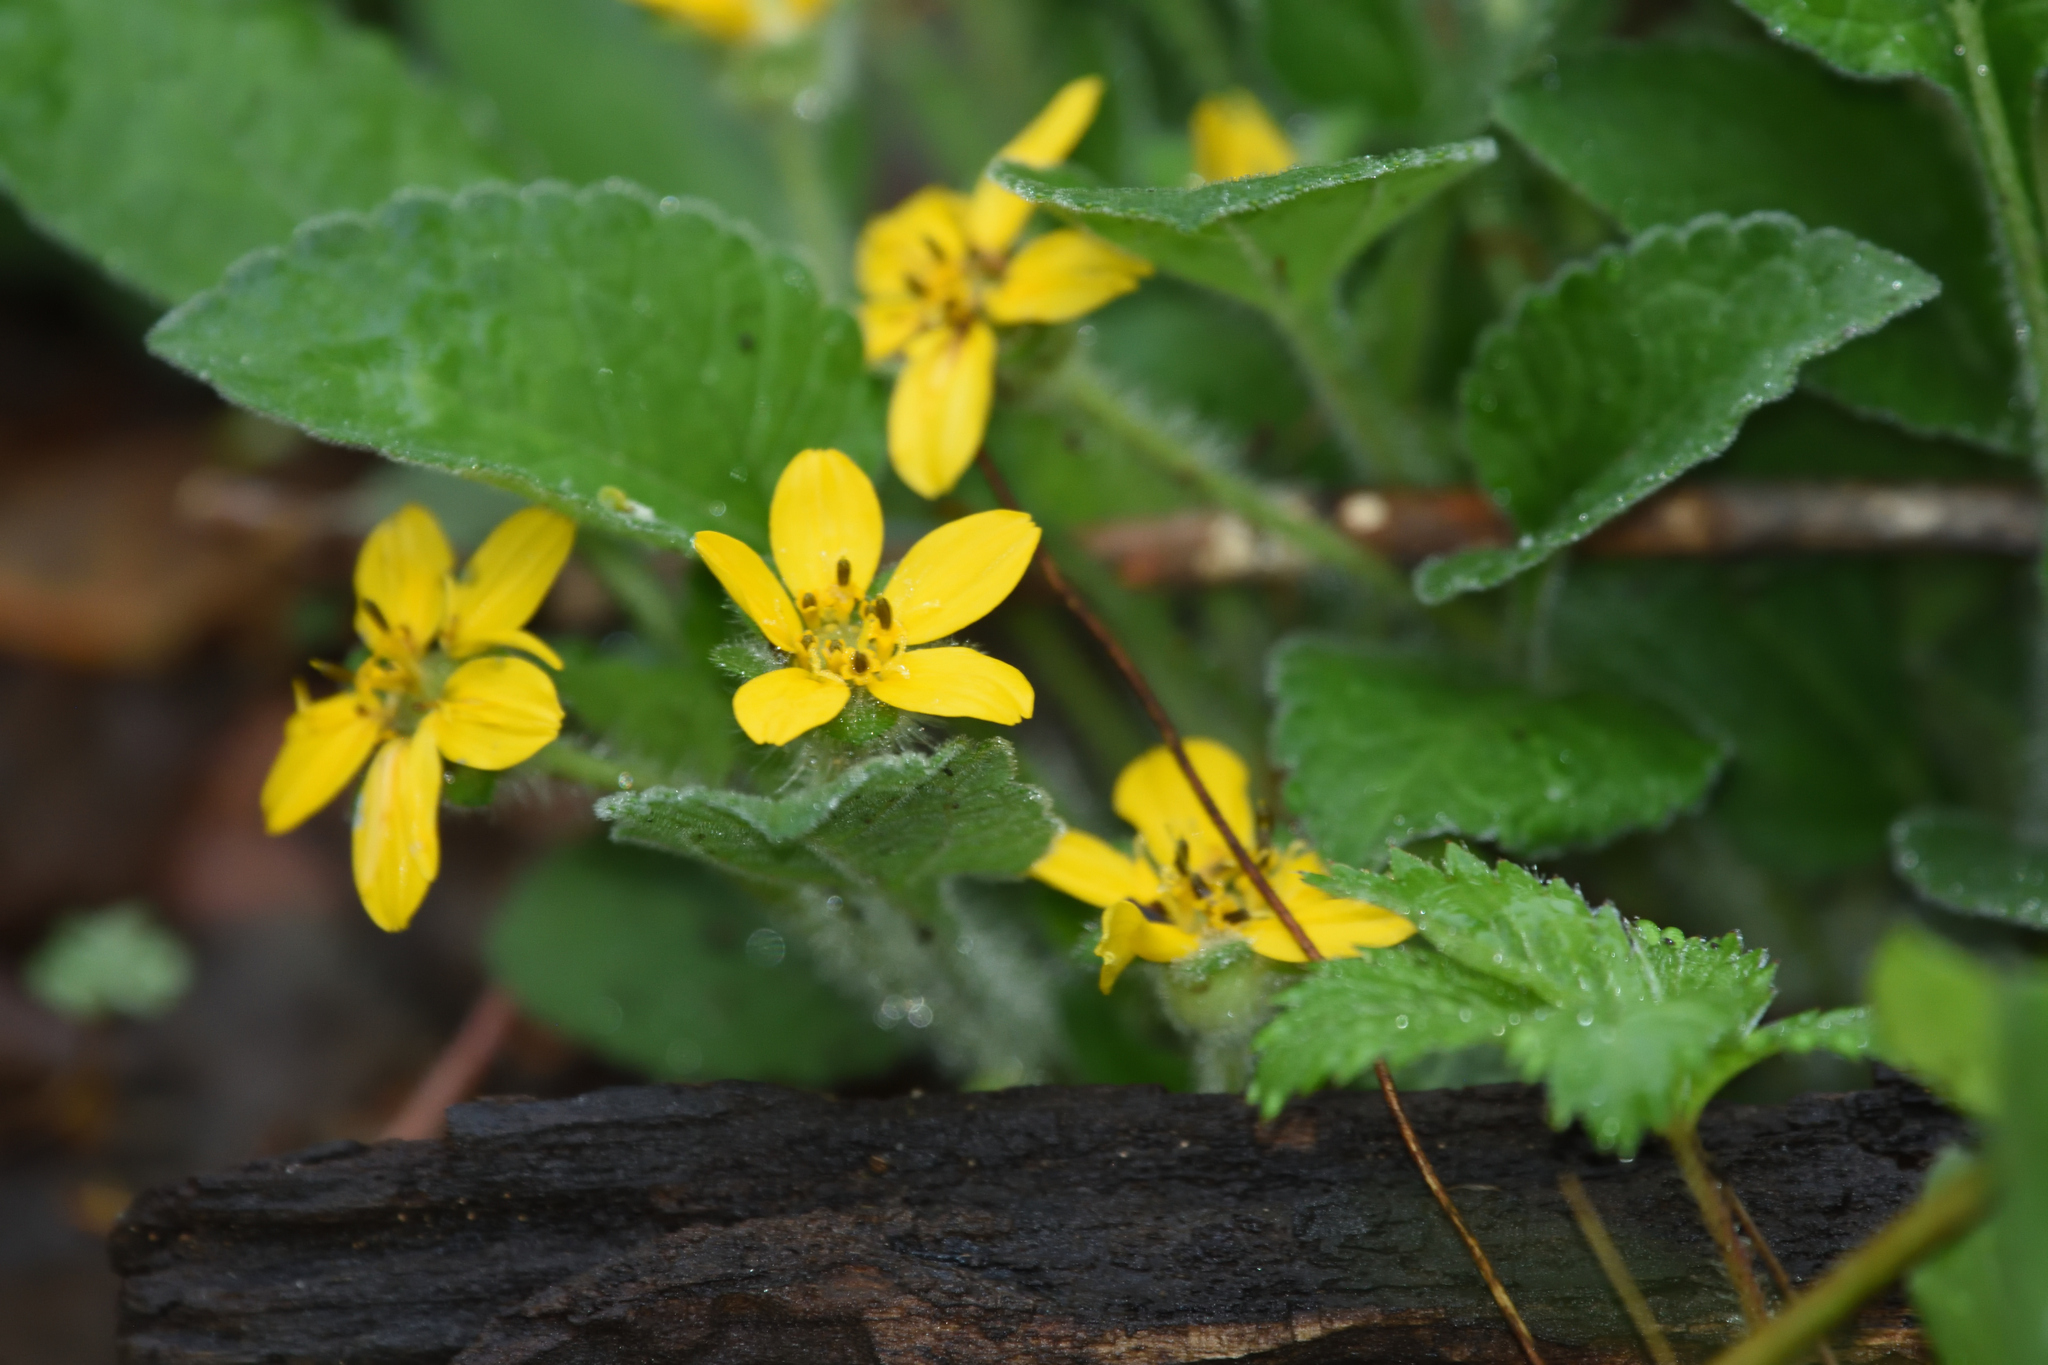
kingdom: Plantae
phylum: Tracheophyta
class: Magnoliopsida
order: Asterales
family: Asteraceae
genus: Chrysogonum
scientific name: Chrysogonum virginianum
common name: Golden-knee
